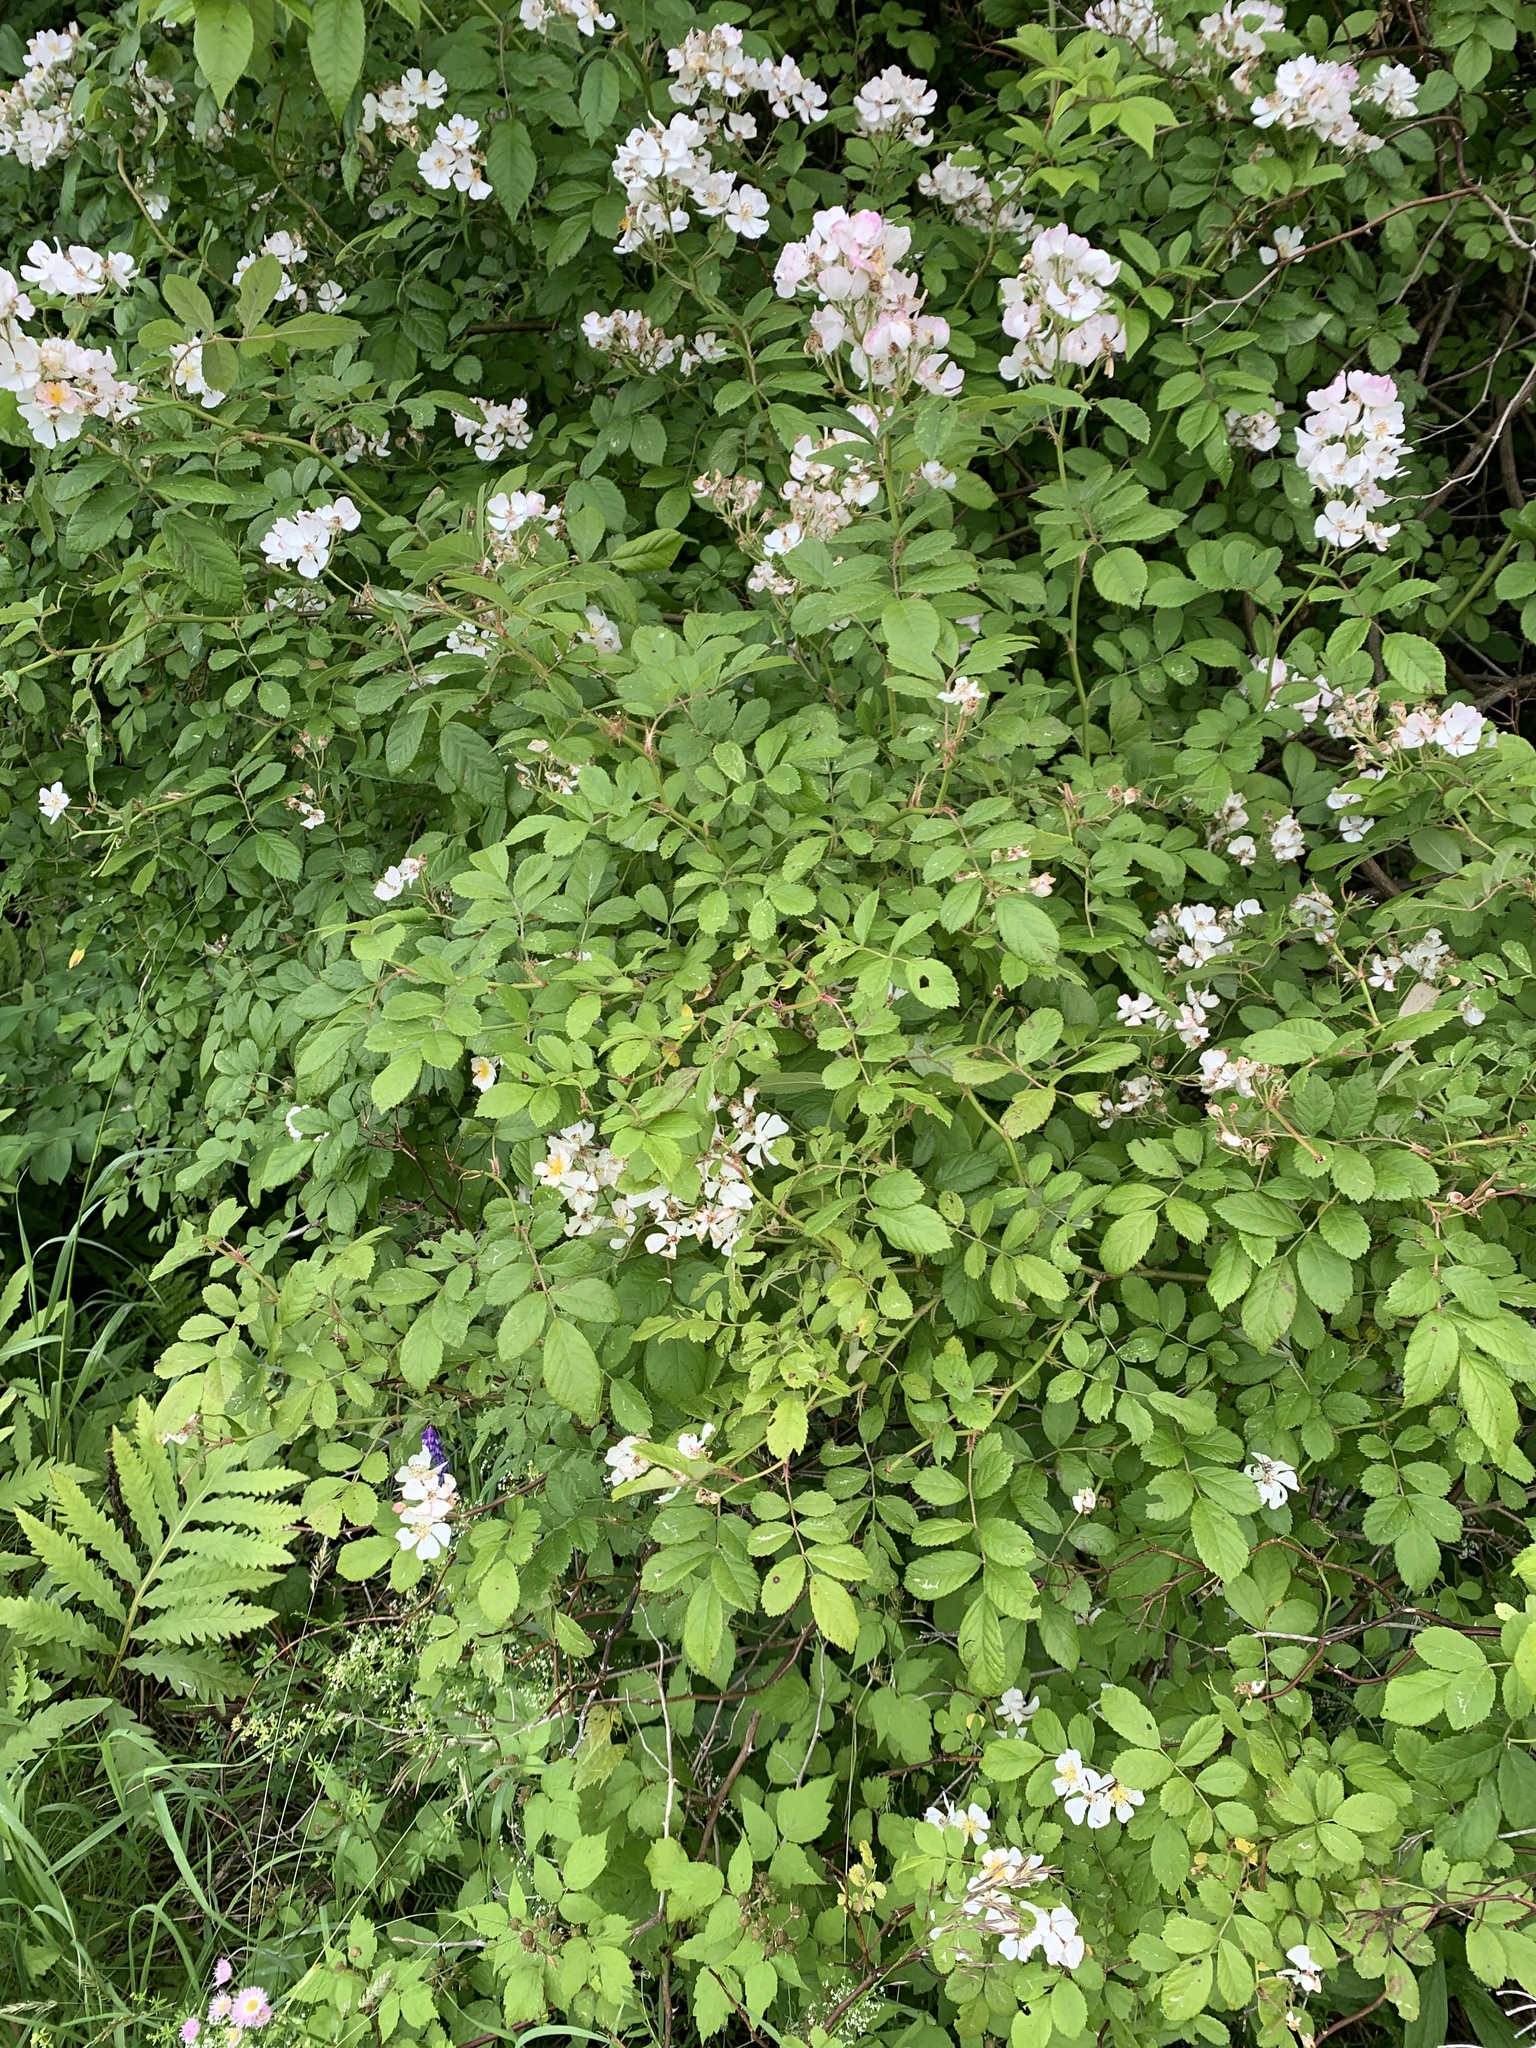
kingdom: Plantae
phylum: Tracheophyta
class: Magnoliopsida
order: Rosales
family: Rosaceae
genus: Rosa
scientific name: Rosa multiflora
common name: Multiflora rose
